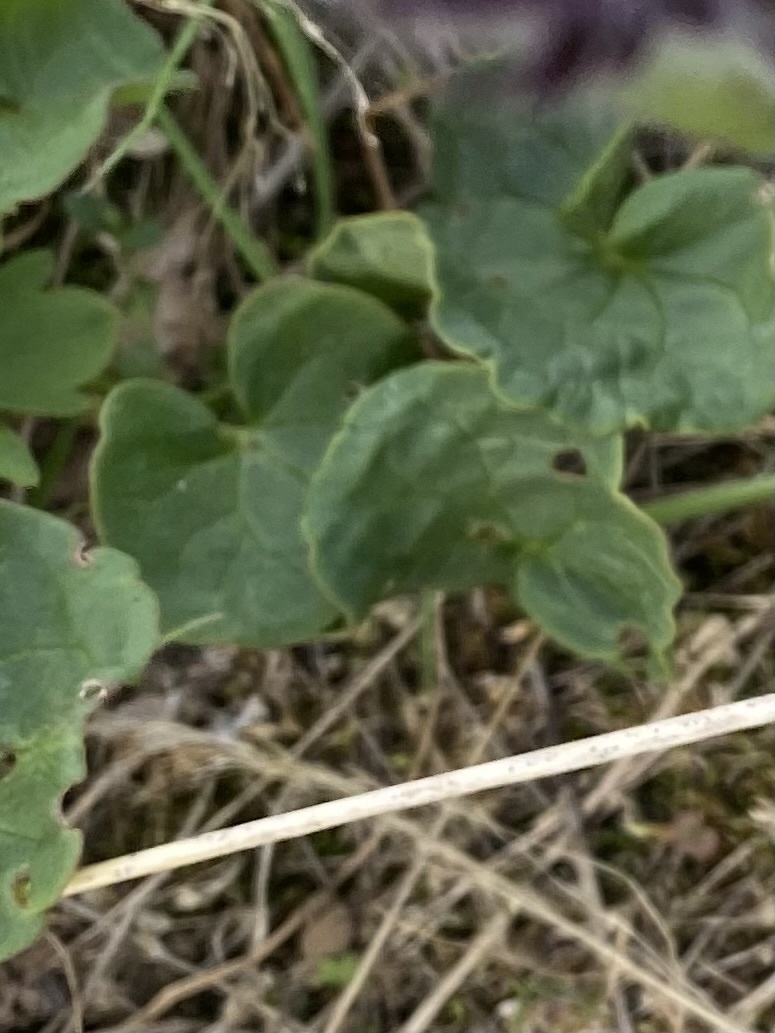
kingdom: Plantae
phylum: Tracheophyta
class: Magnoliopsida
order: Caryophyllales
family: Polygonaceae
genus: Oxyria
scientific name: Oxyria digyna
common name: Alpine mountain-sorrel
